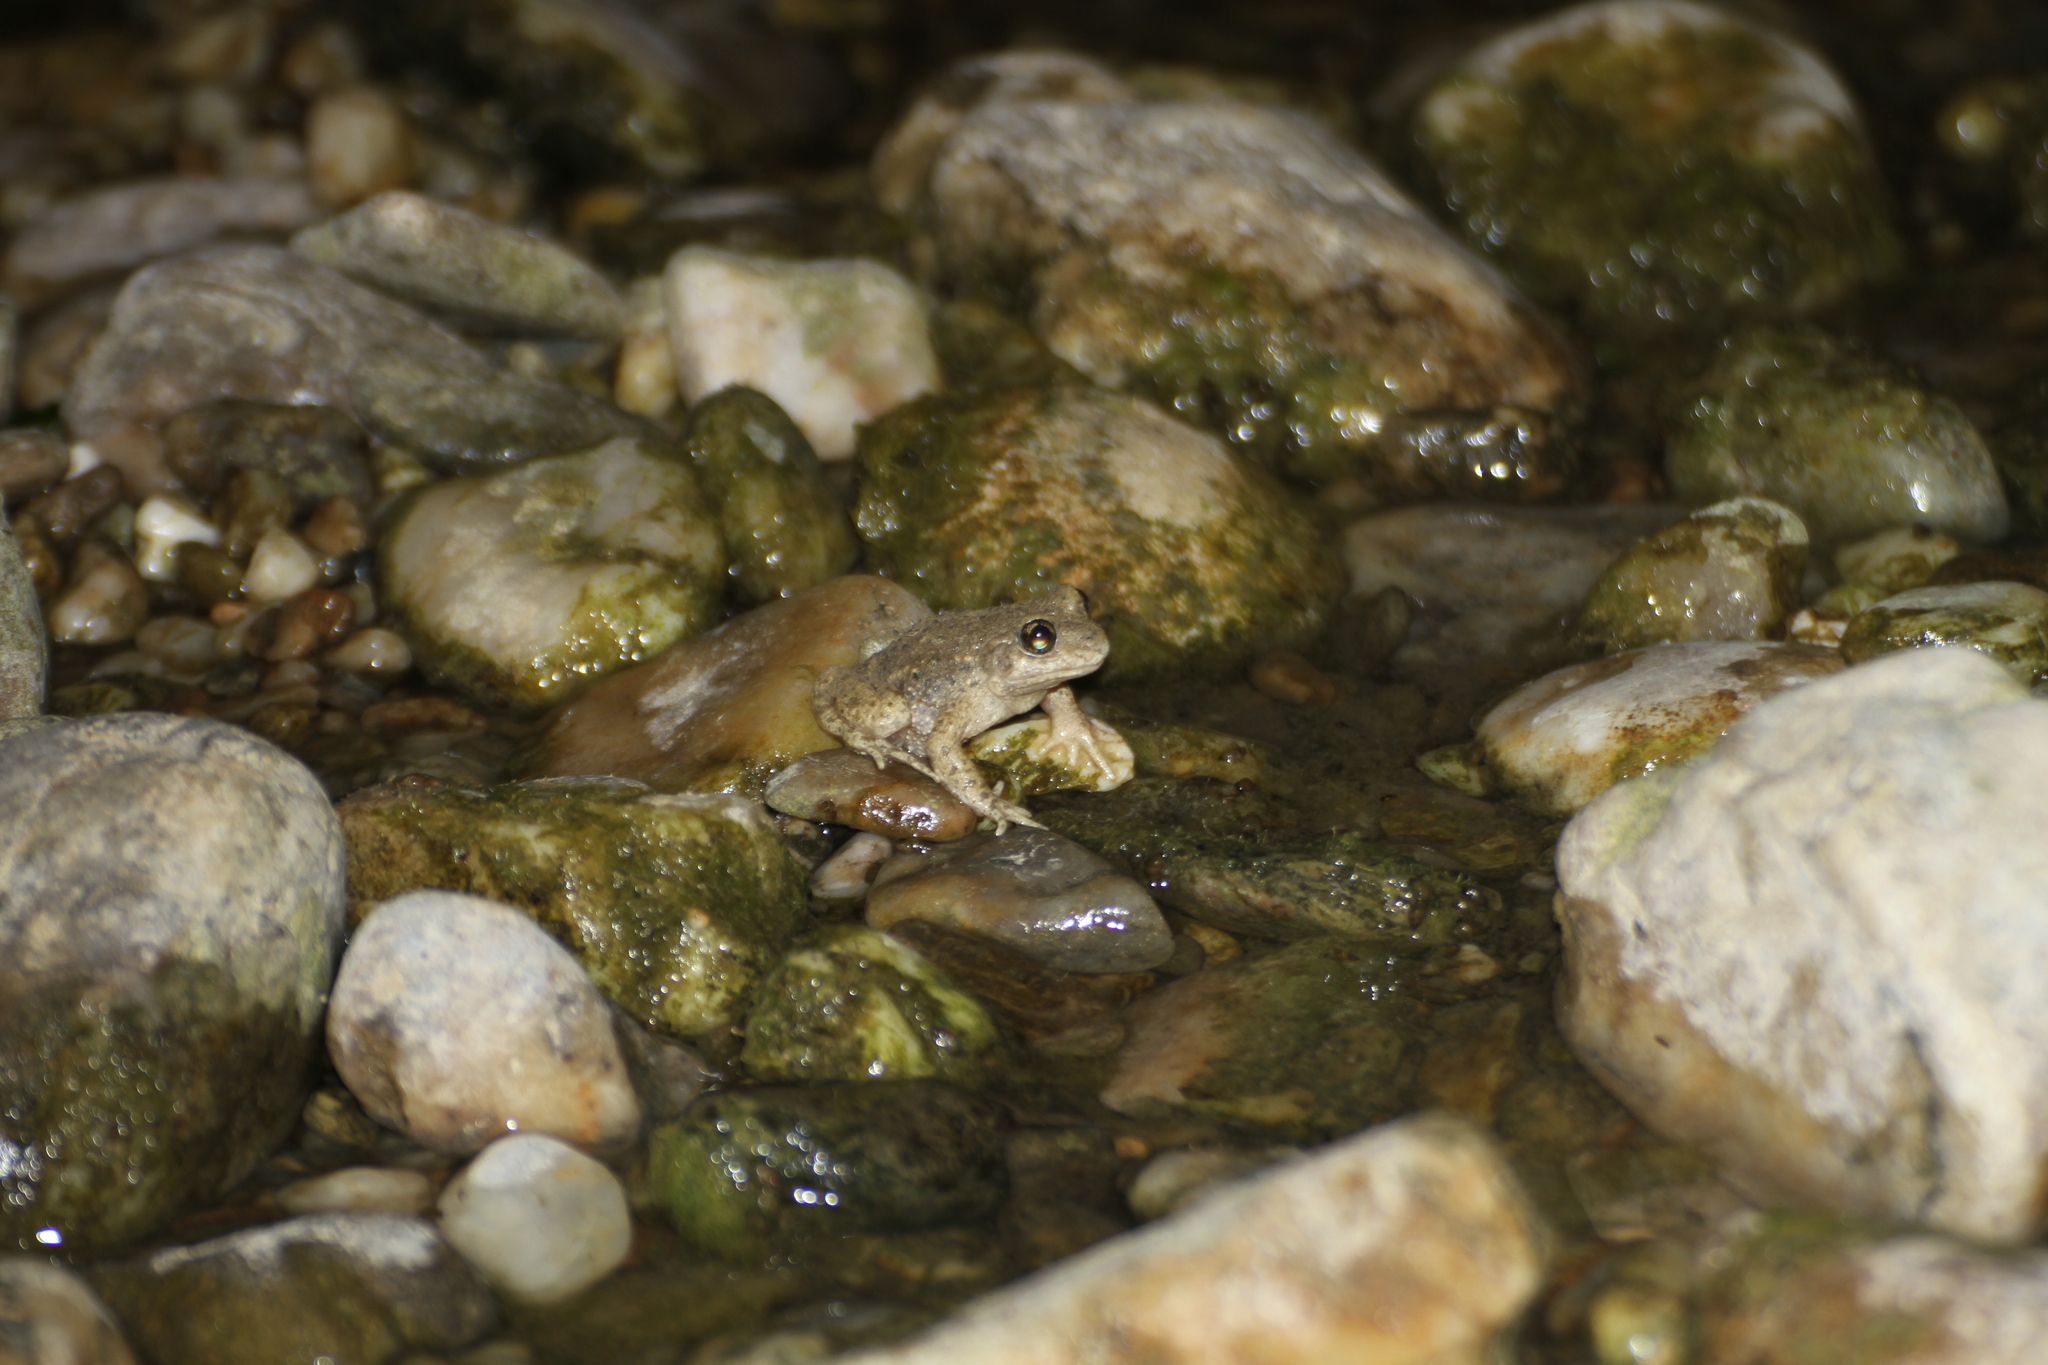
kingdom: Animalia
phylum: Chordata
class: Amphibia
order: Anura
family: Alytidae
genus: Alytes
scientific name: Alytes obstetricans
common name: Midwife toad
